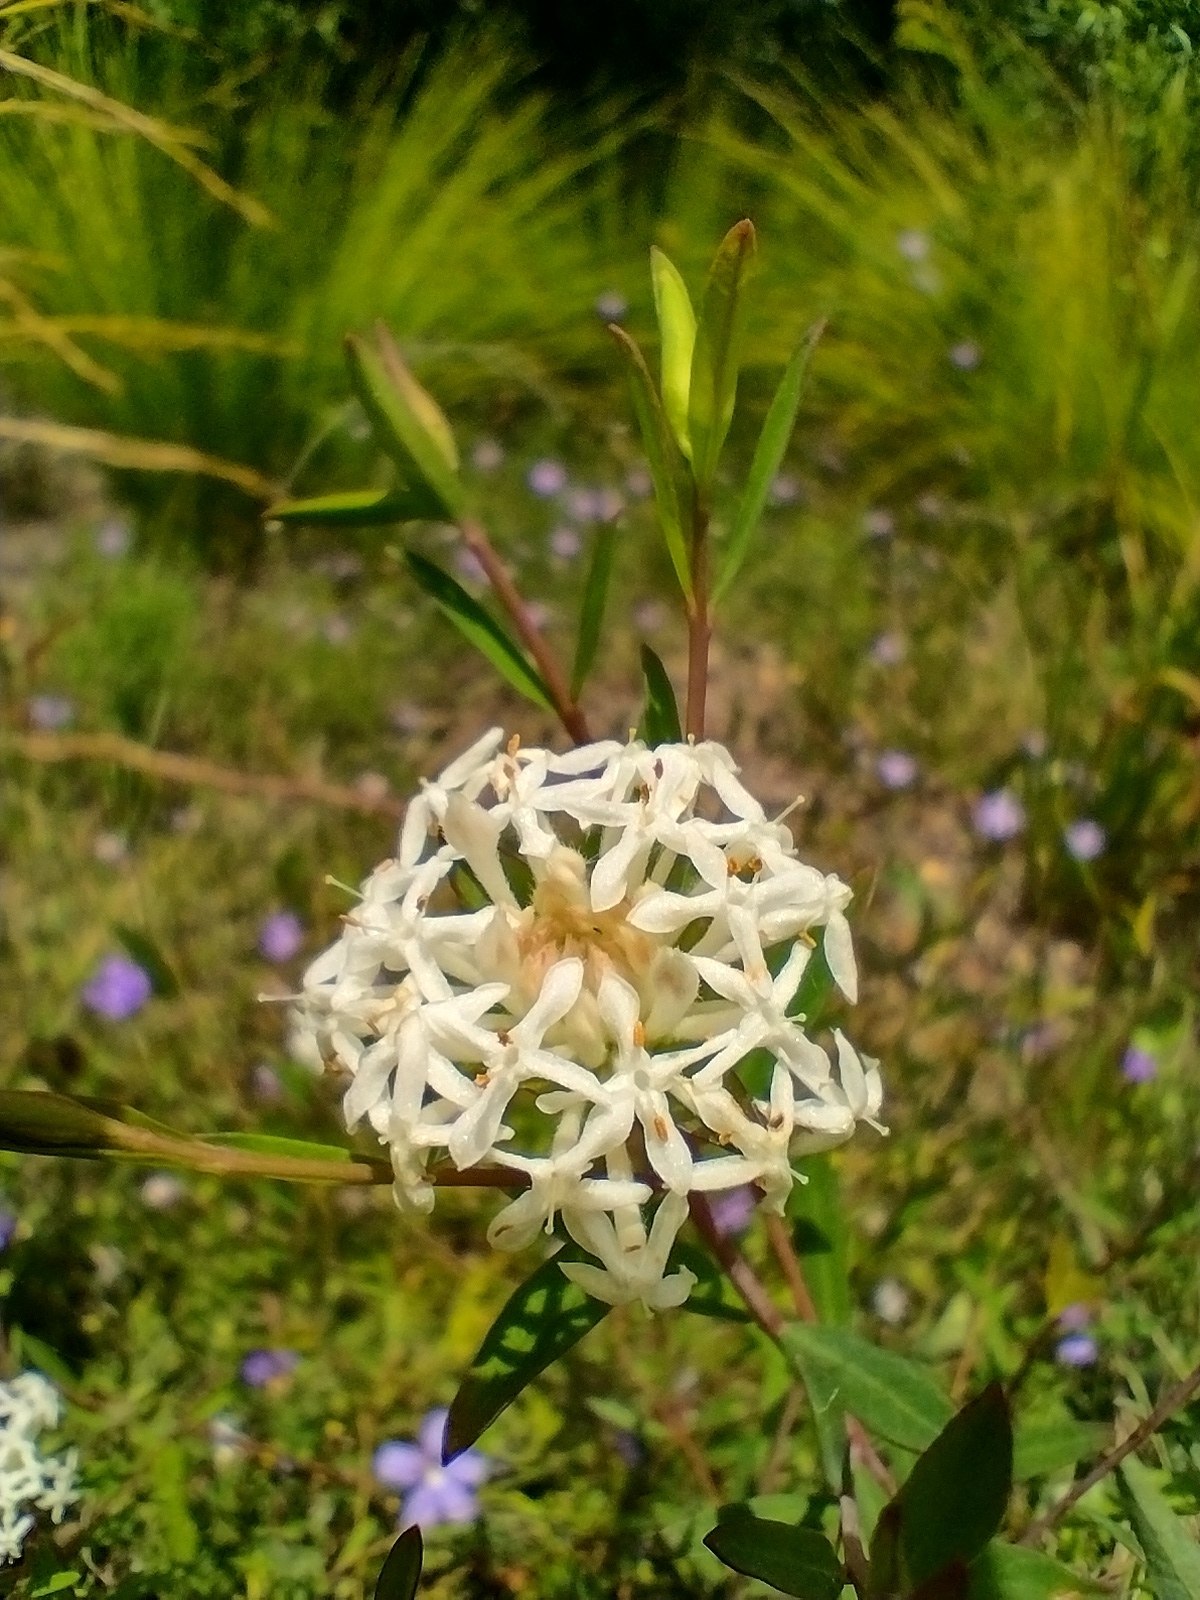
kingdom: Plantae
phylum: Tracheophyta
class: Magnoliopsida
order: Malvales
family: Thymelaeaceae
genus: Pimelea
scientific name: Pimelea linifolia
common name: Queen-of-the-bush
